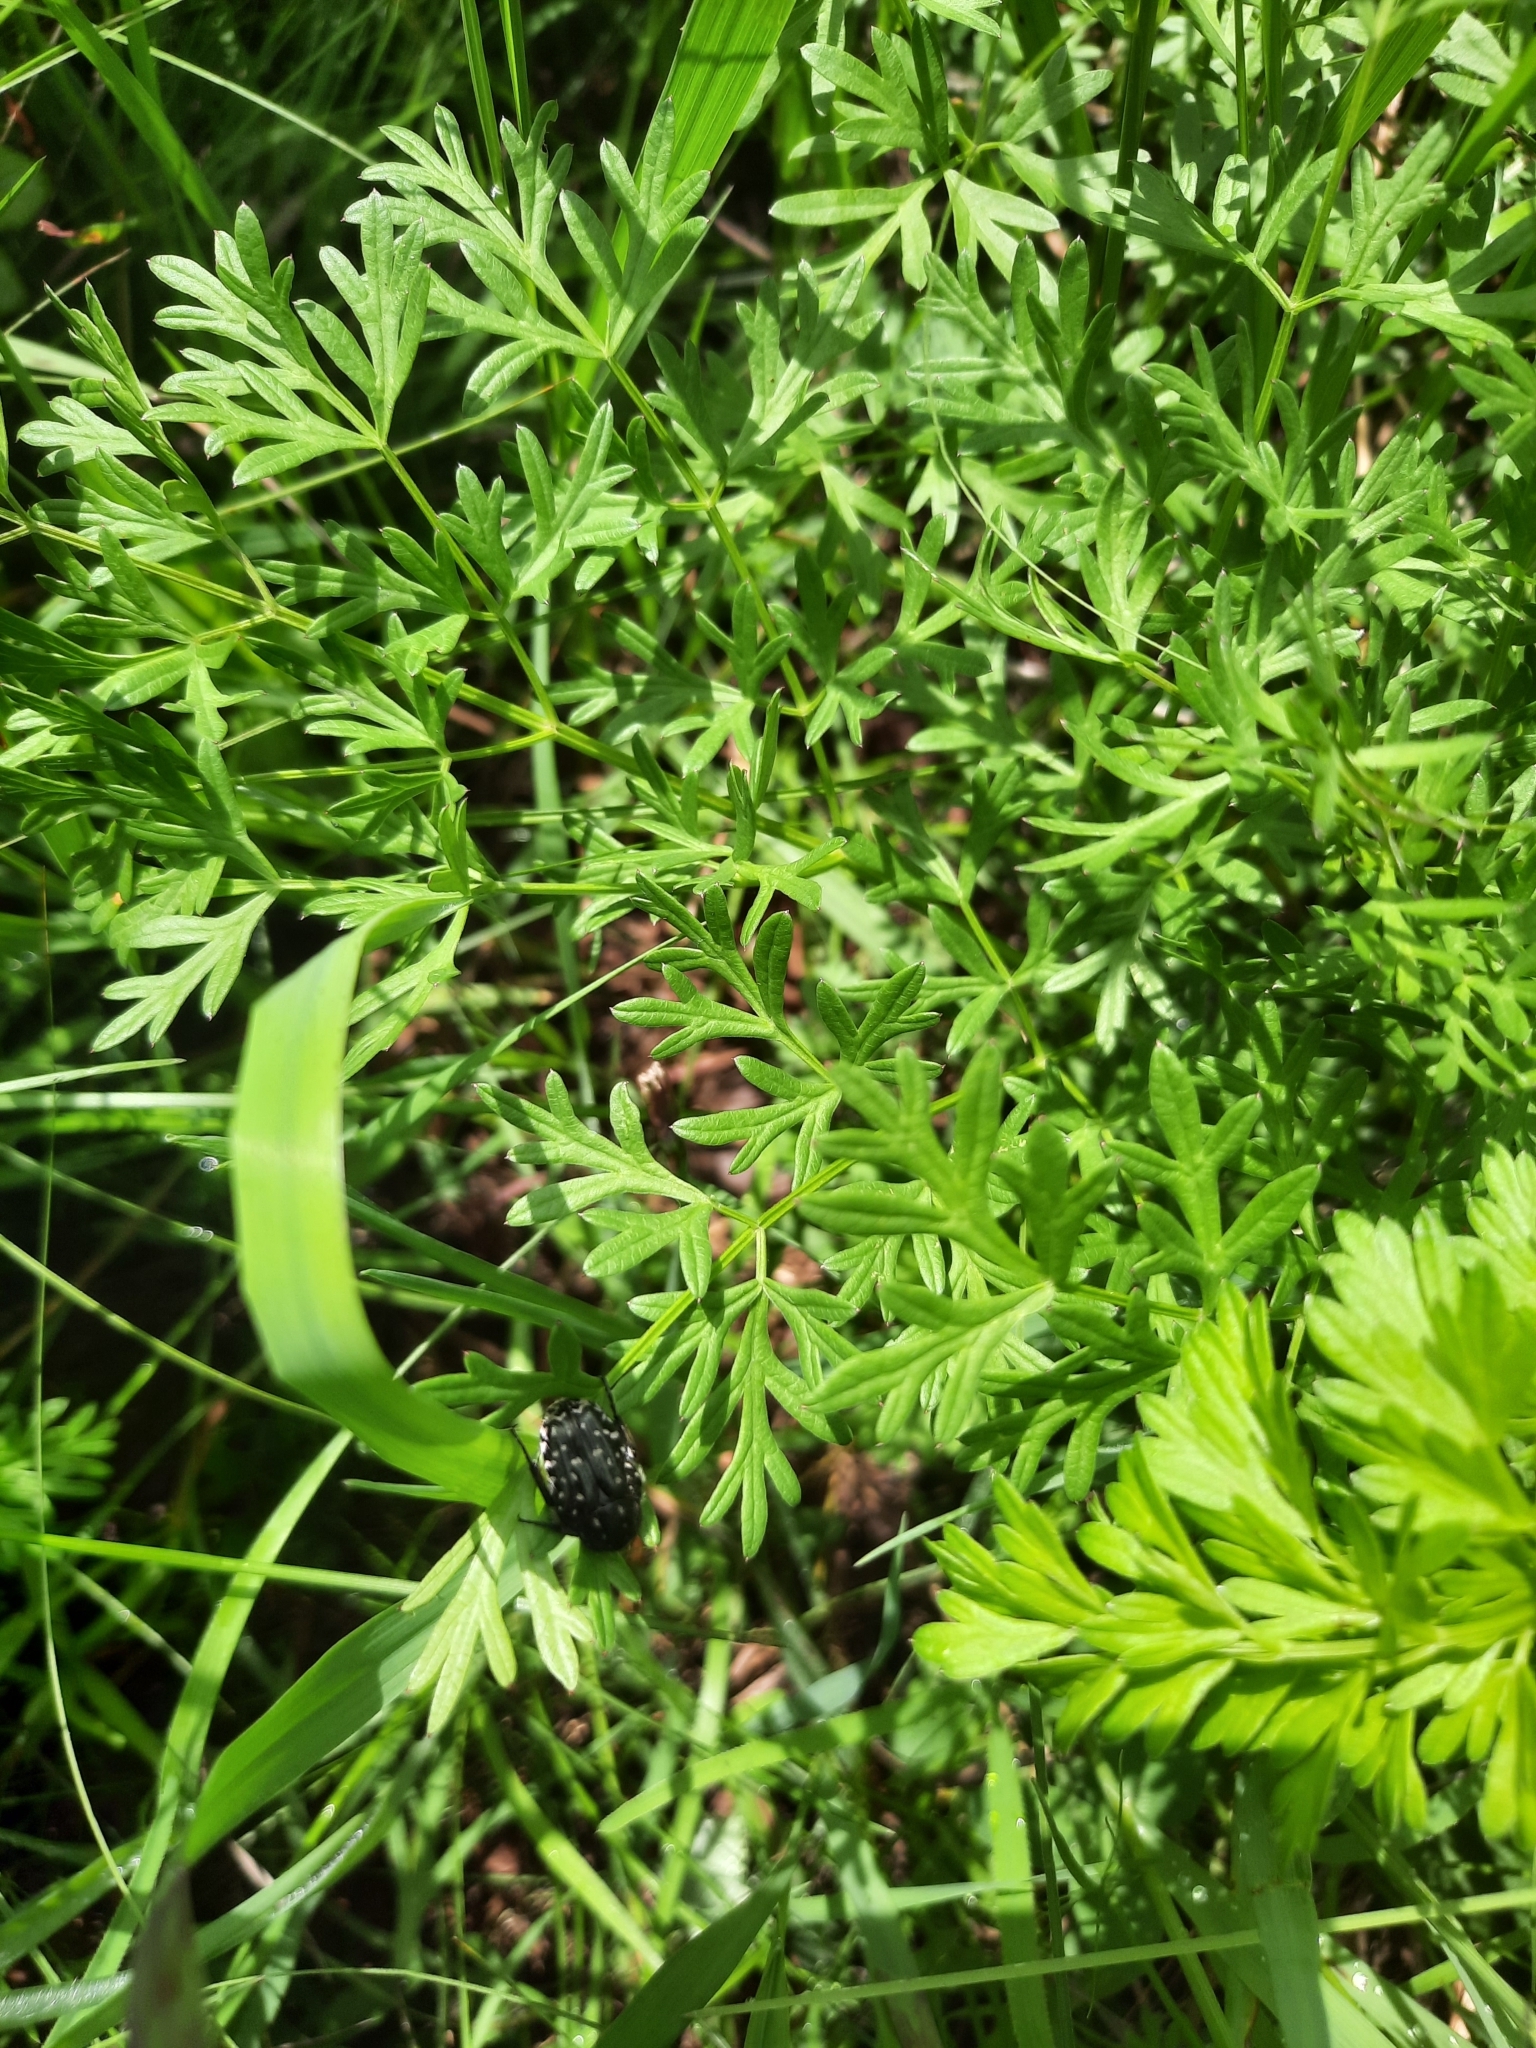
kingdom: Animalia
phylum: Arthropoda
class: Insecta
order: Coleoptera
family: Scarabaeidae
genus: Oxythyrea
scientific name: Oxythyrea funesta
